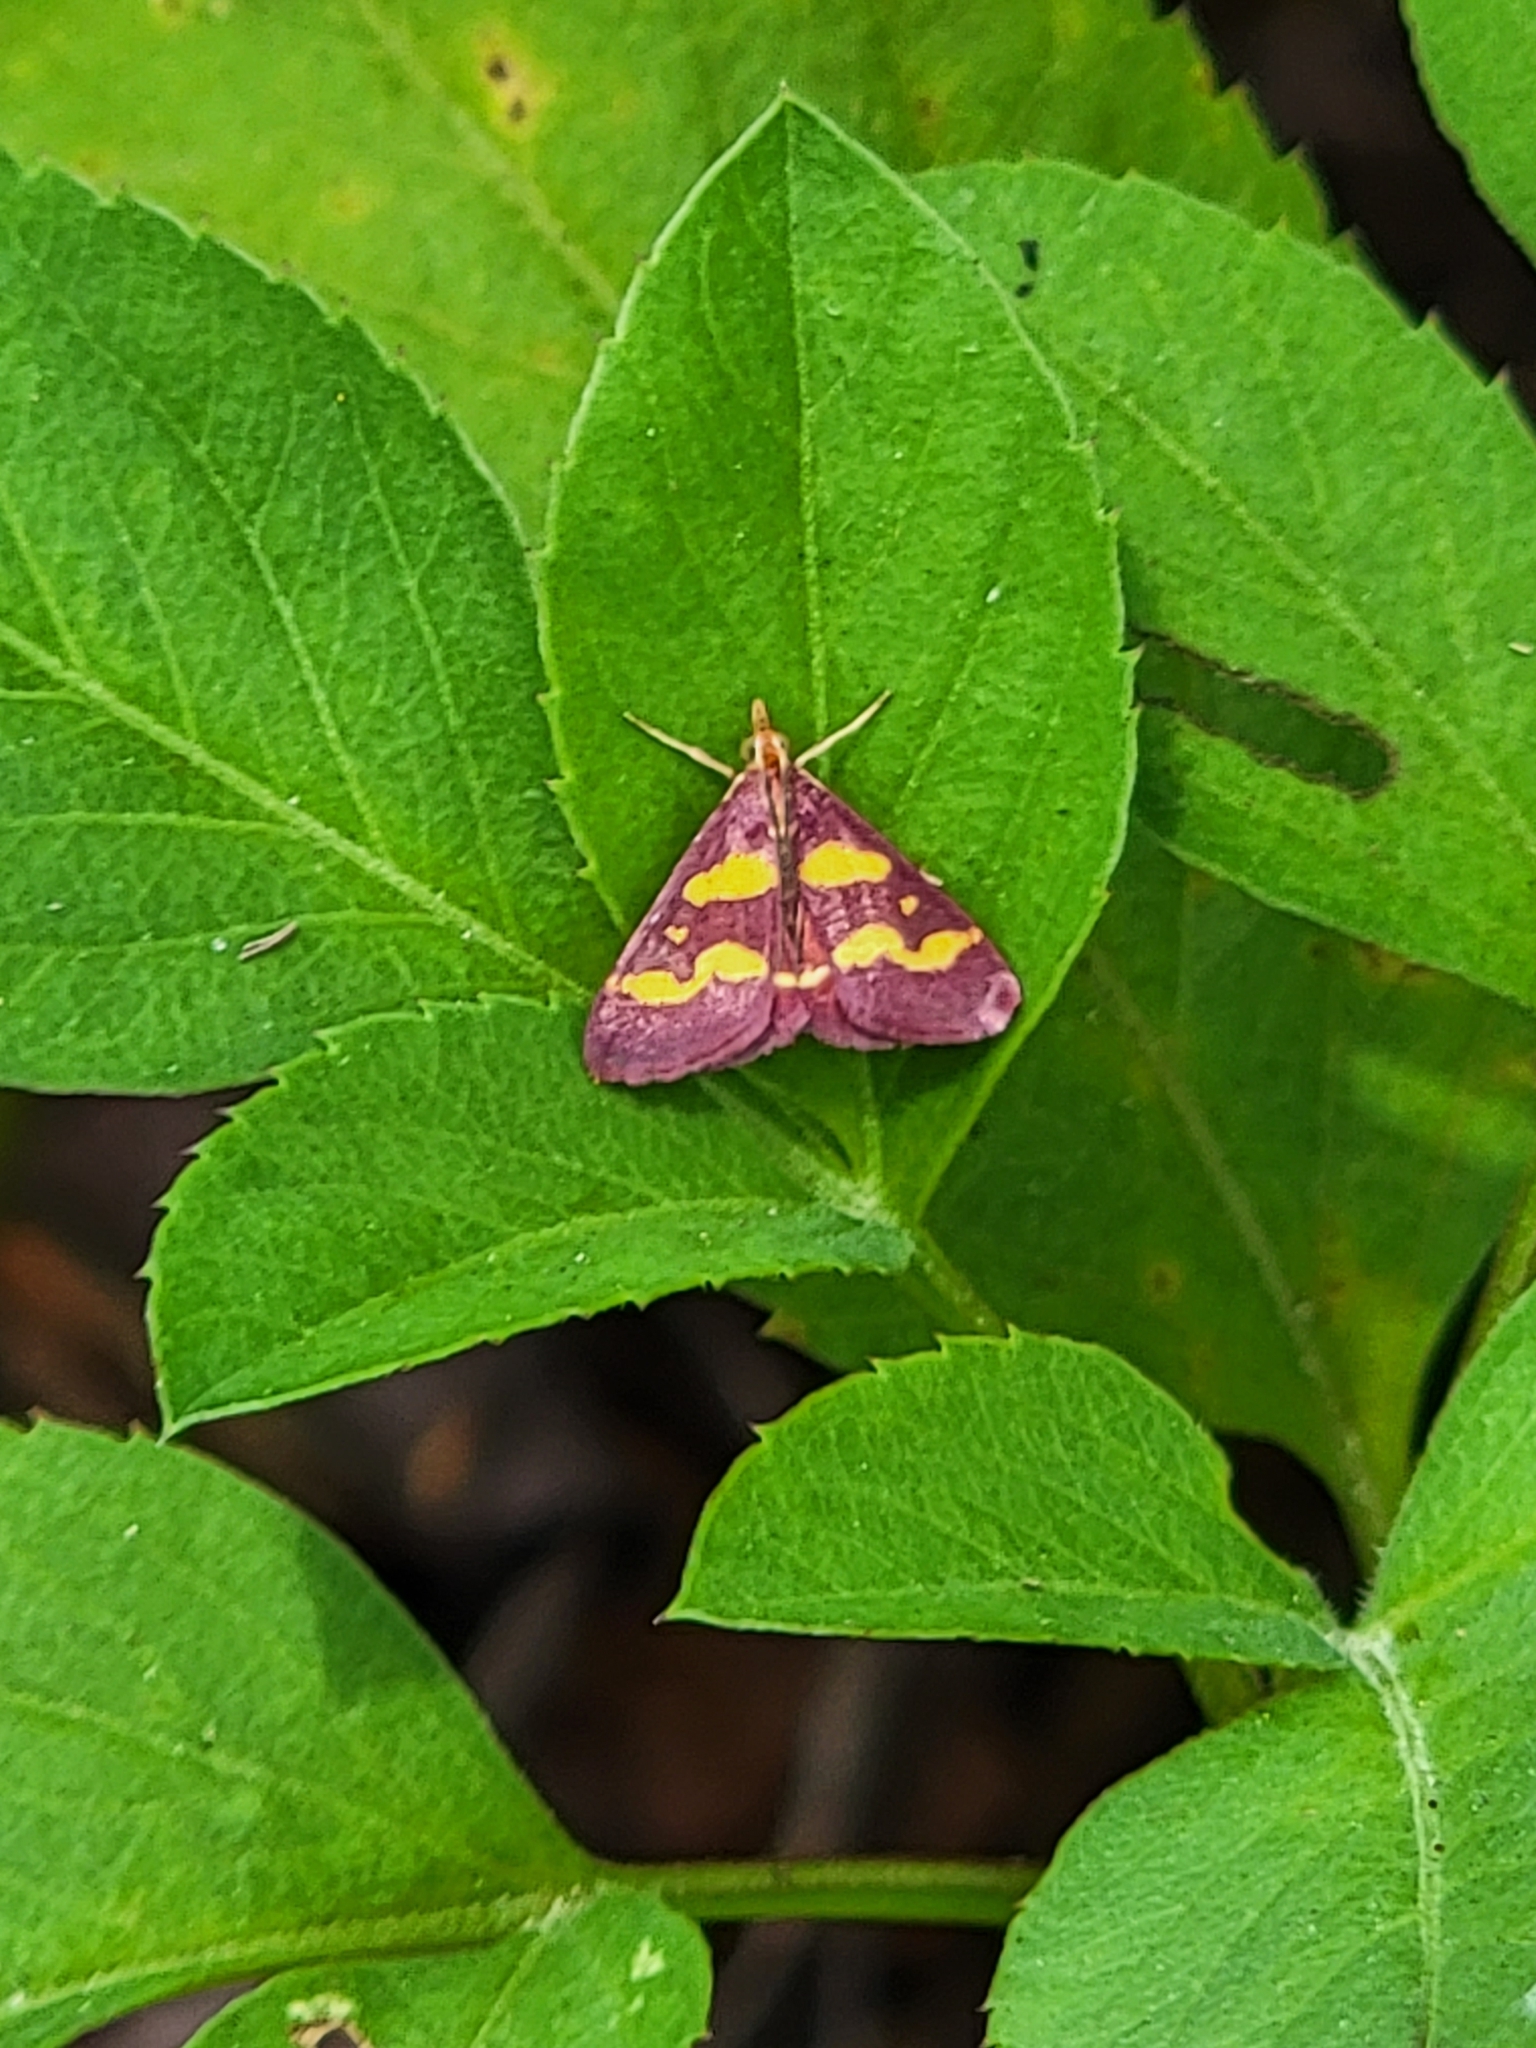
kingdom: Animalia
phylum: Arthropoda
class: Insecta
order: Lepidoptera
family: Crambidae
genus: Pyrausta
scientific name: Pyrausta tyralis
